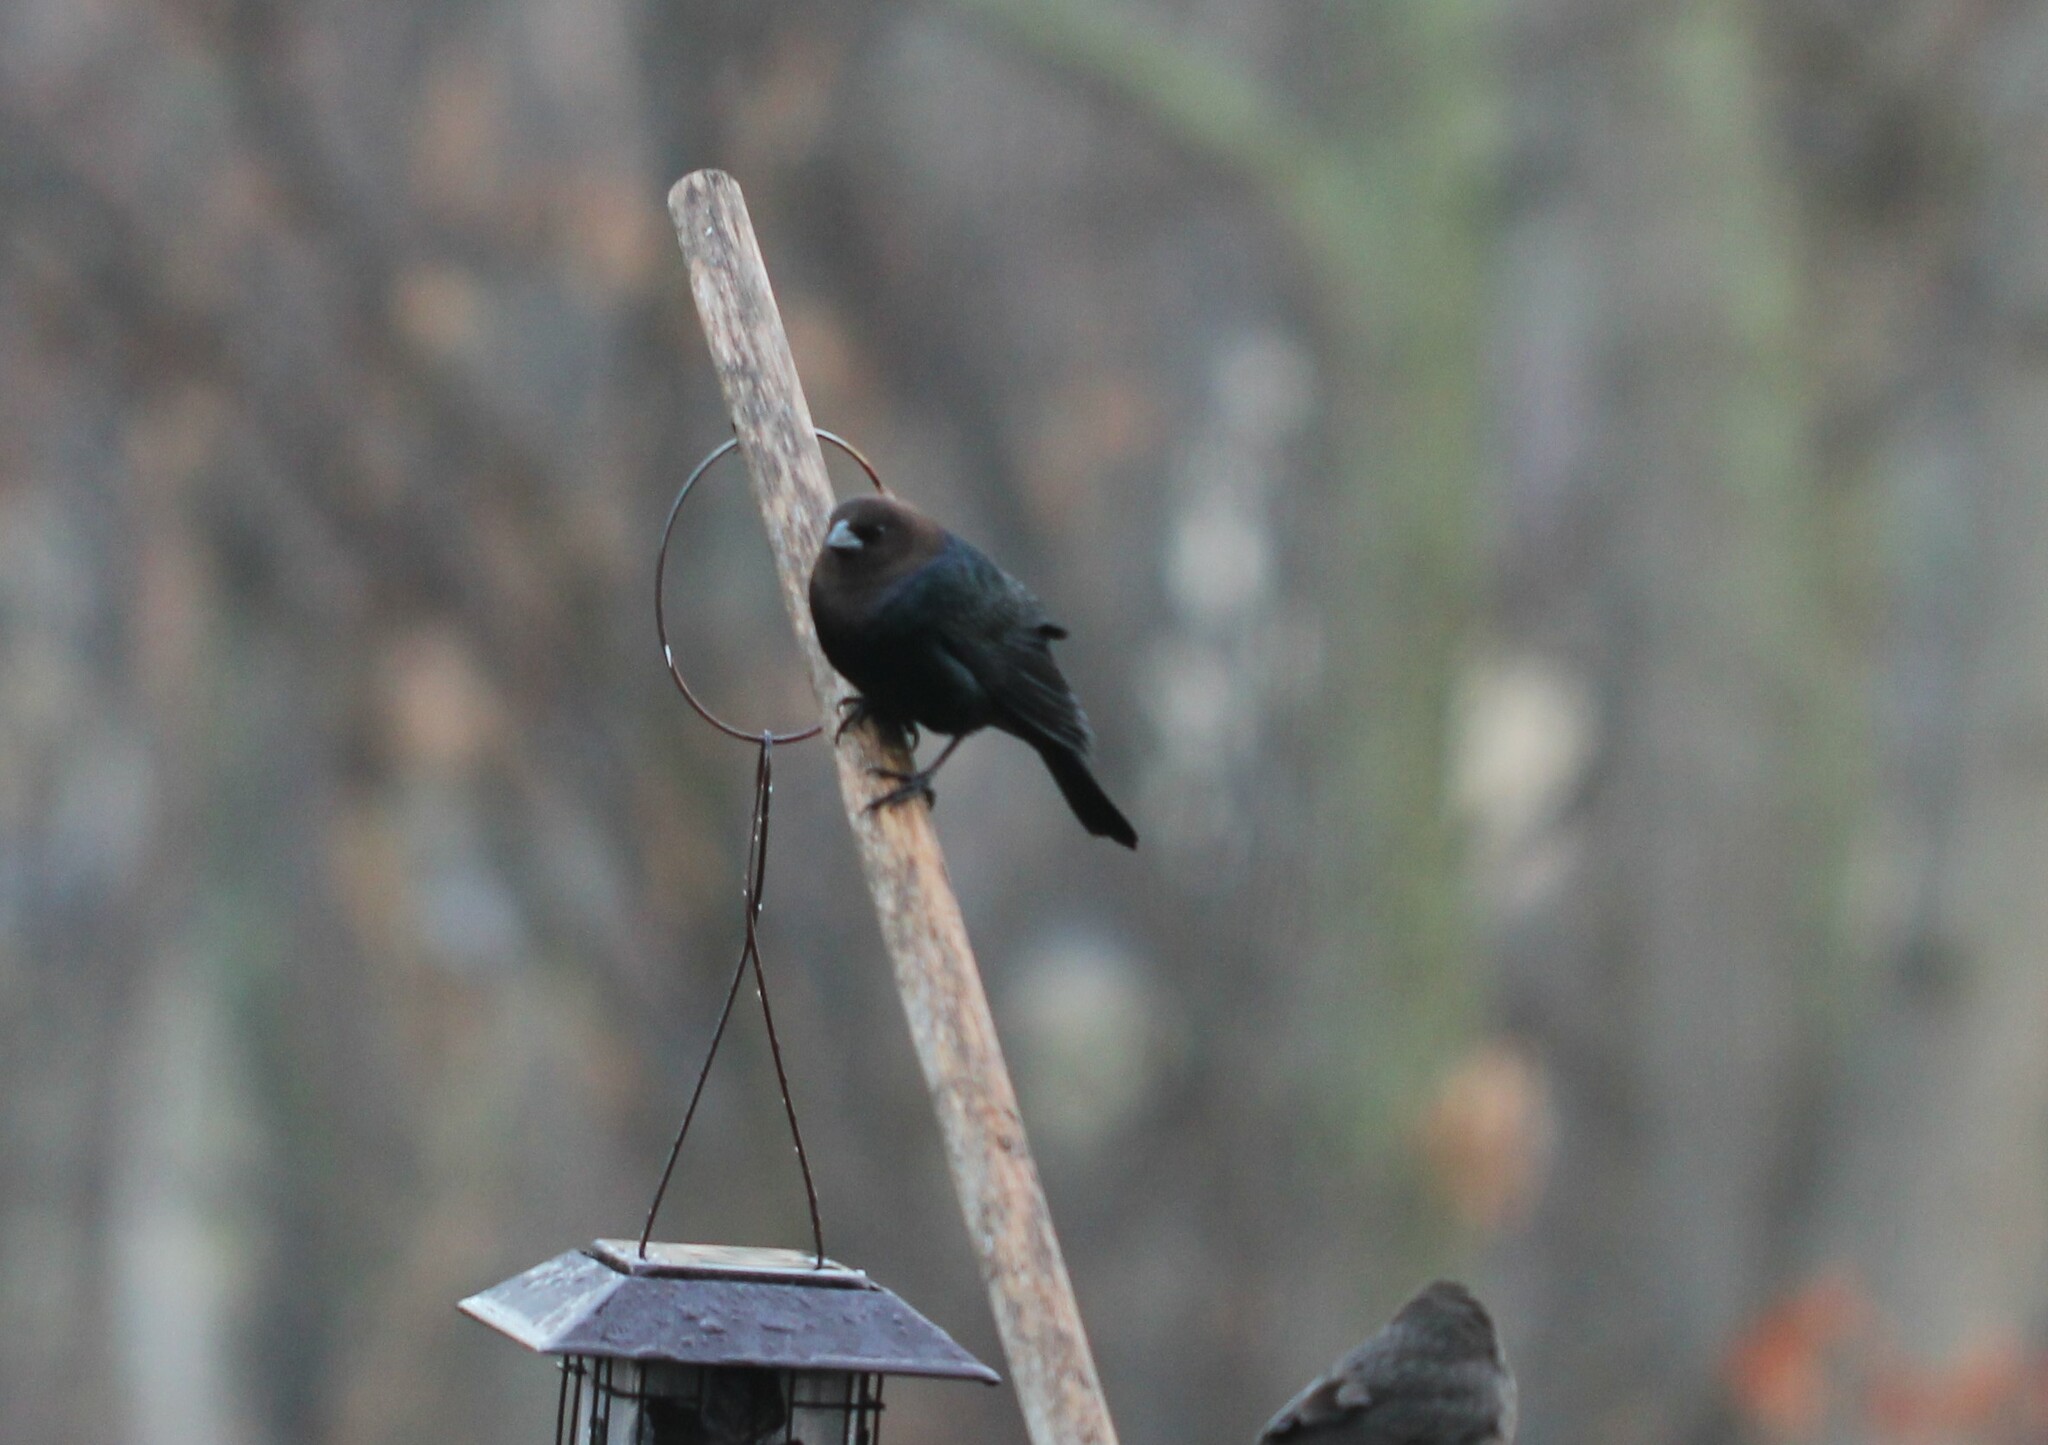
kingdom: Animalia
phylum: Chordata
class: Aves
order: Passeriformes
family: Icteridae
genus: Molothrus
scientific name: Molothrus ater
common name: Brown-headed cowbird
